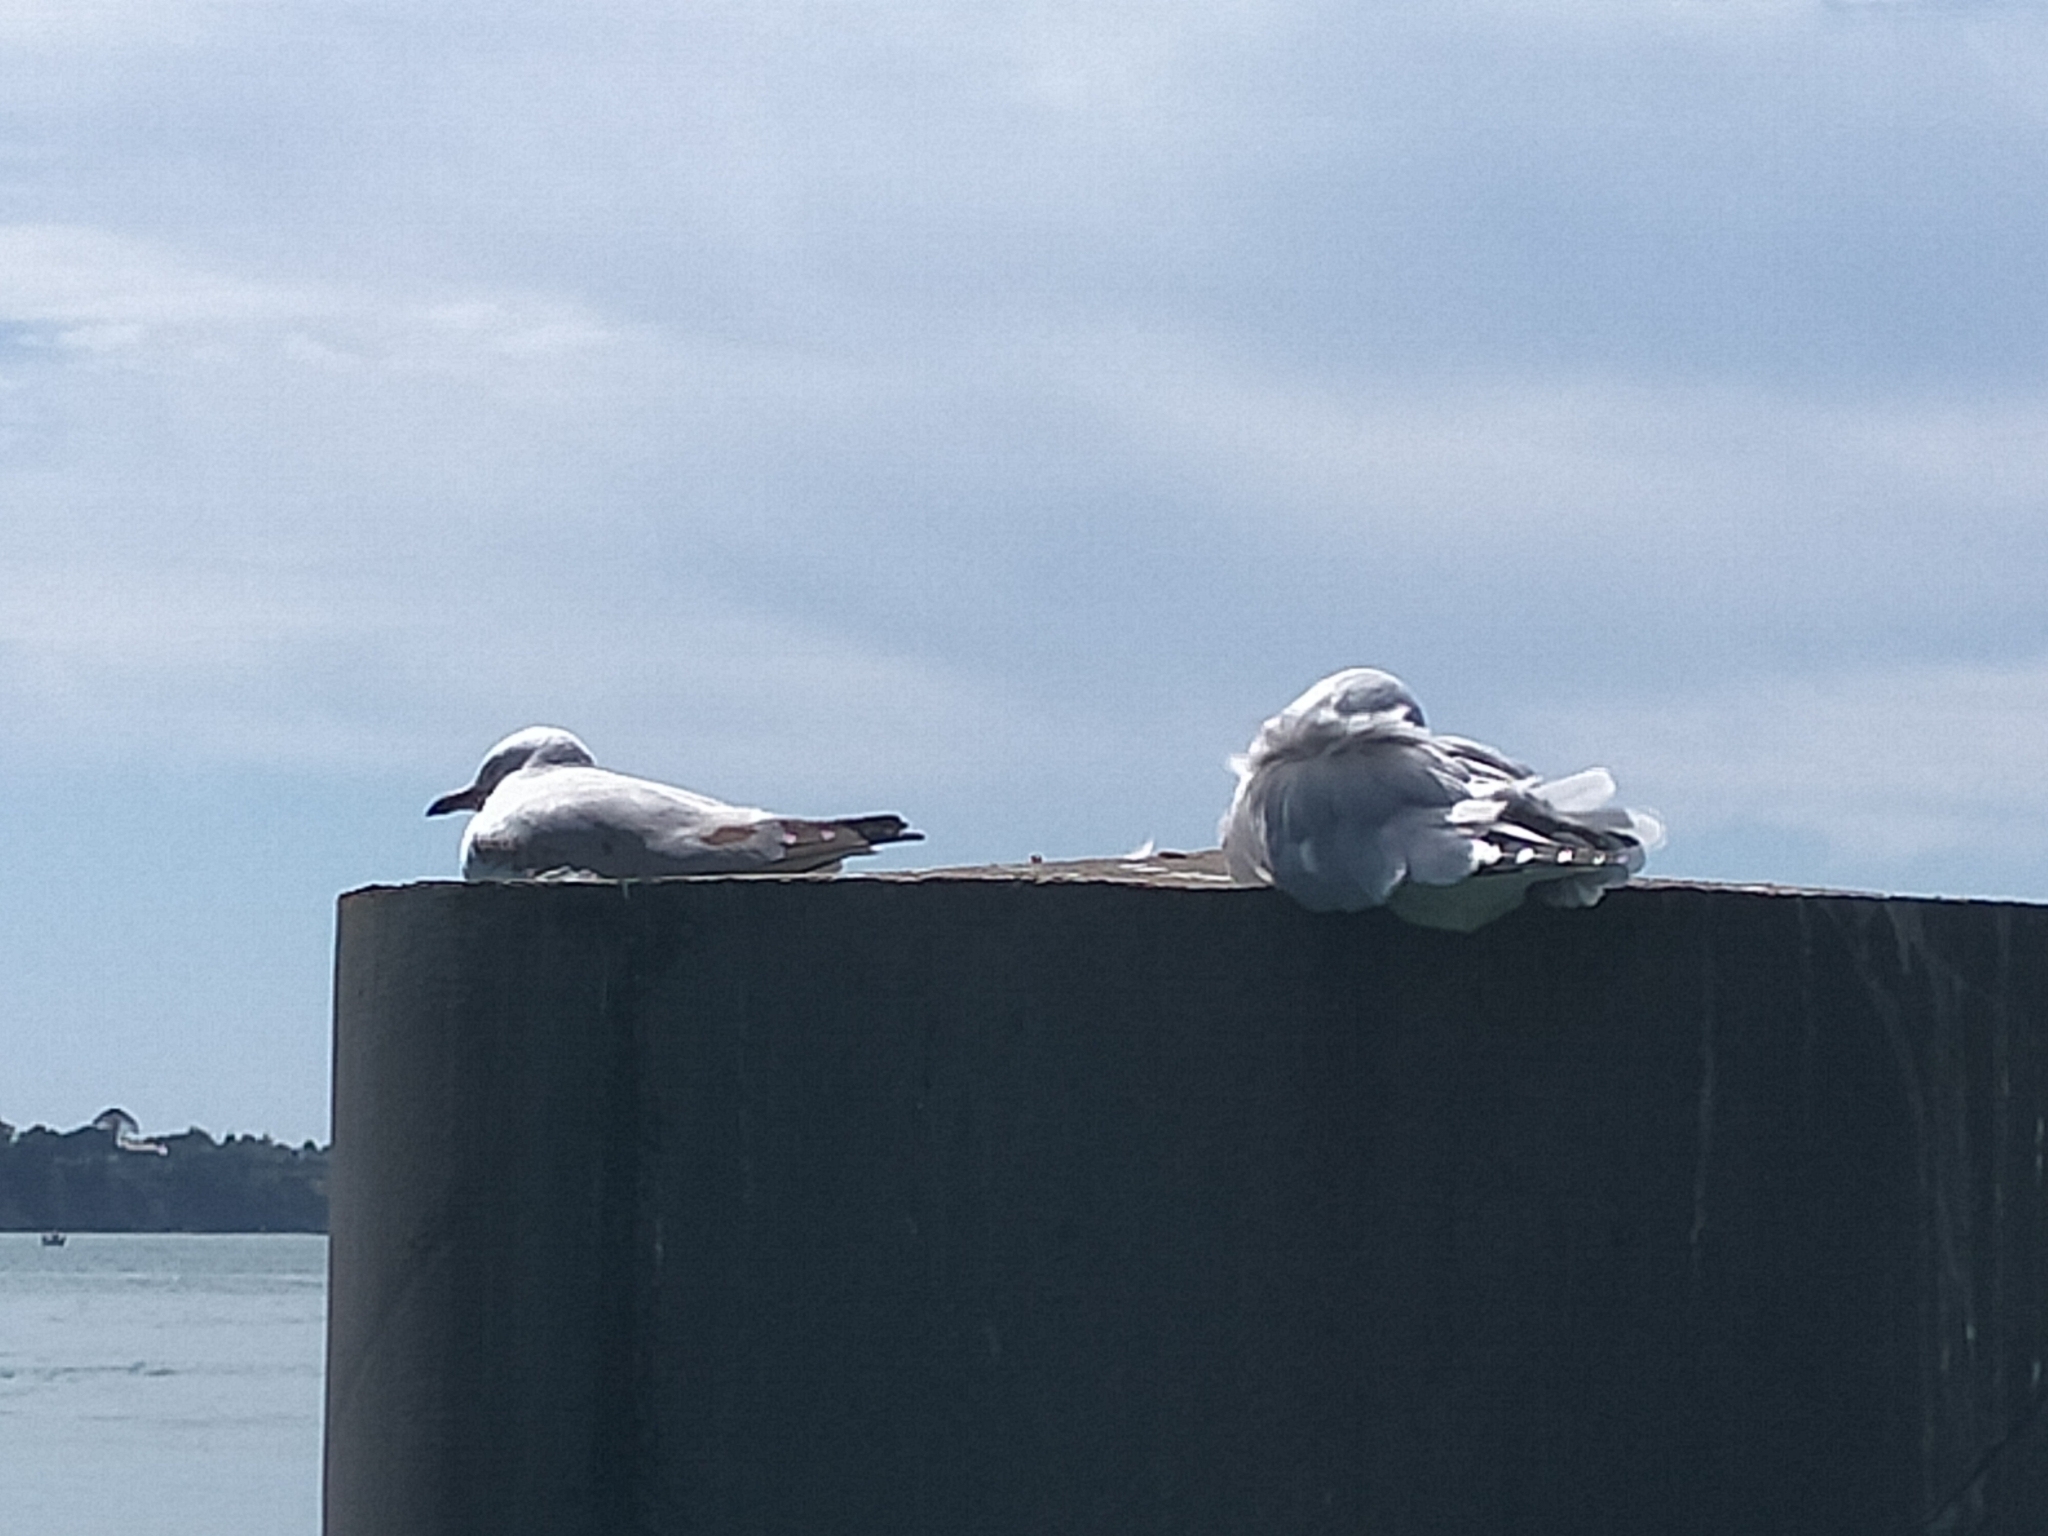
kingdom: Animalia
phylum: Chordata
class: Aves
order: Charadriiformes
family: Laridae
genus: Chroicocephalus
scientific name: Chroicocephalus novaehollandiae
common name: Silver gull
